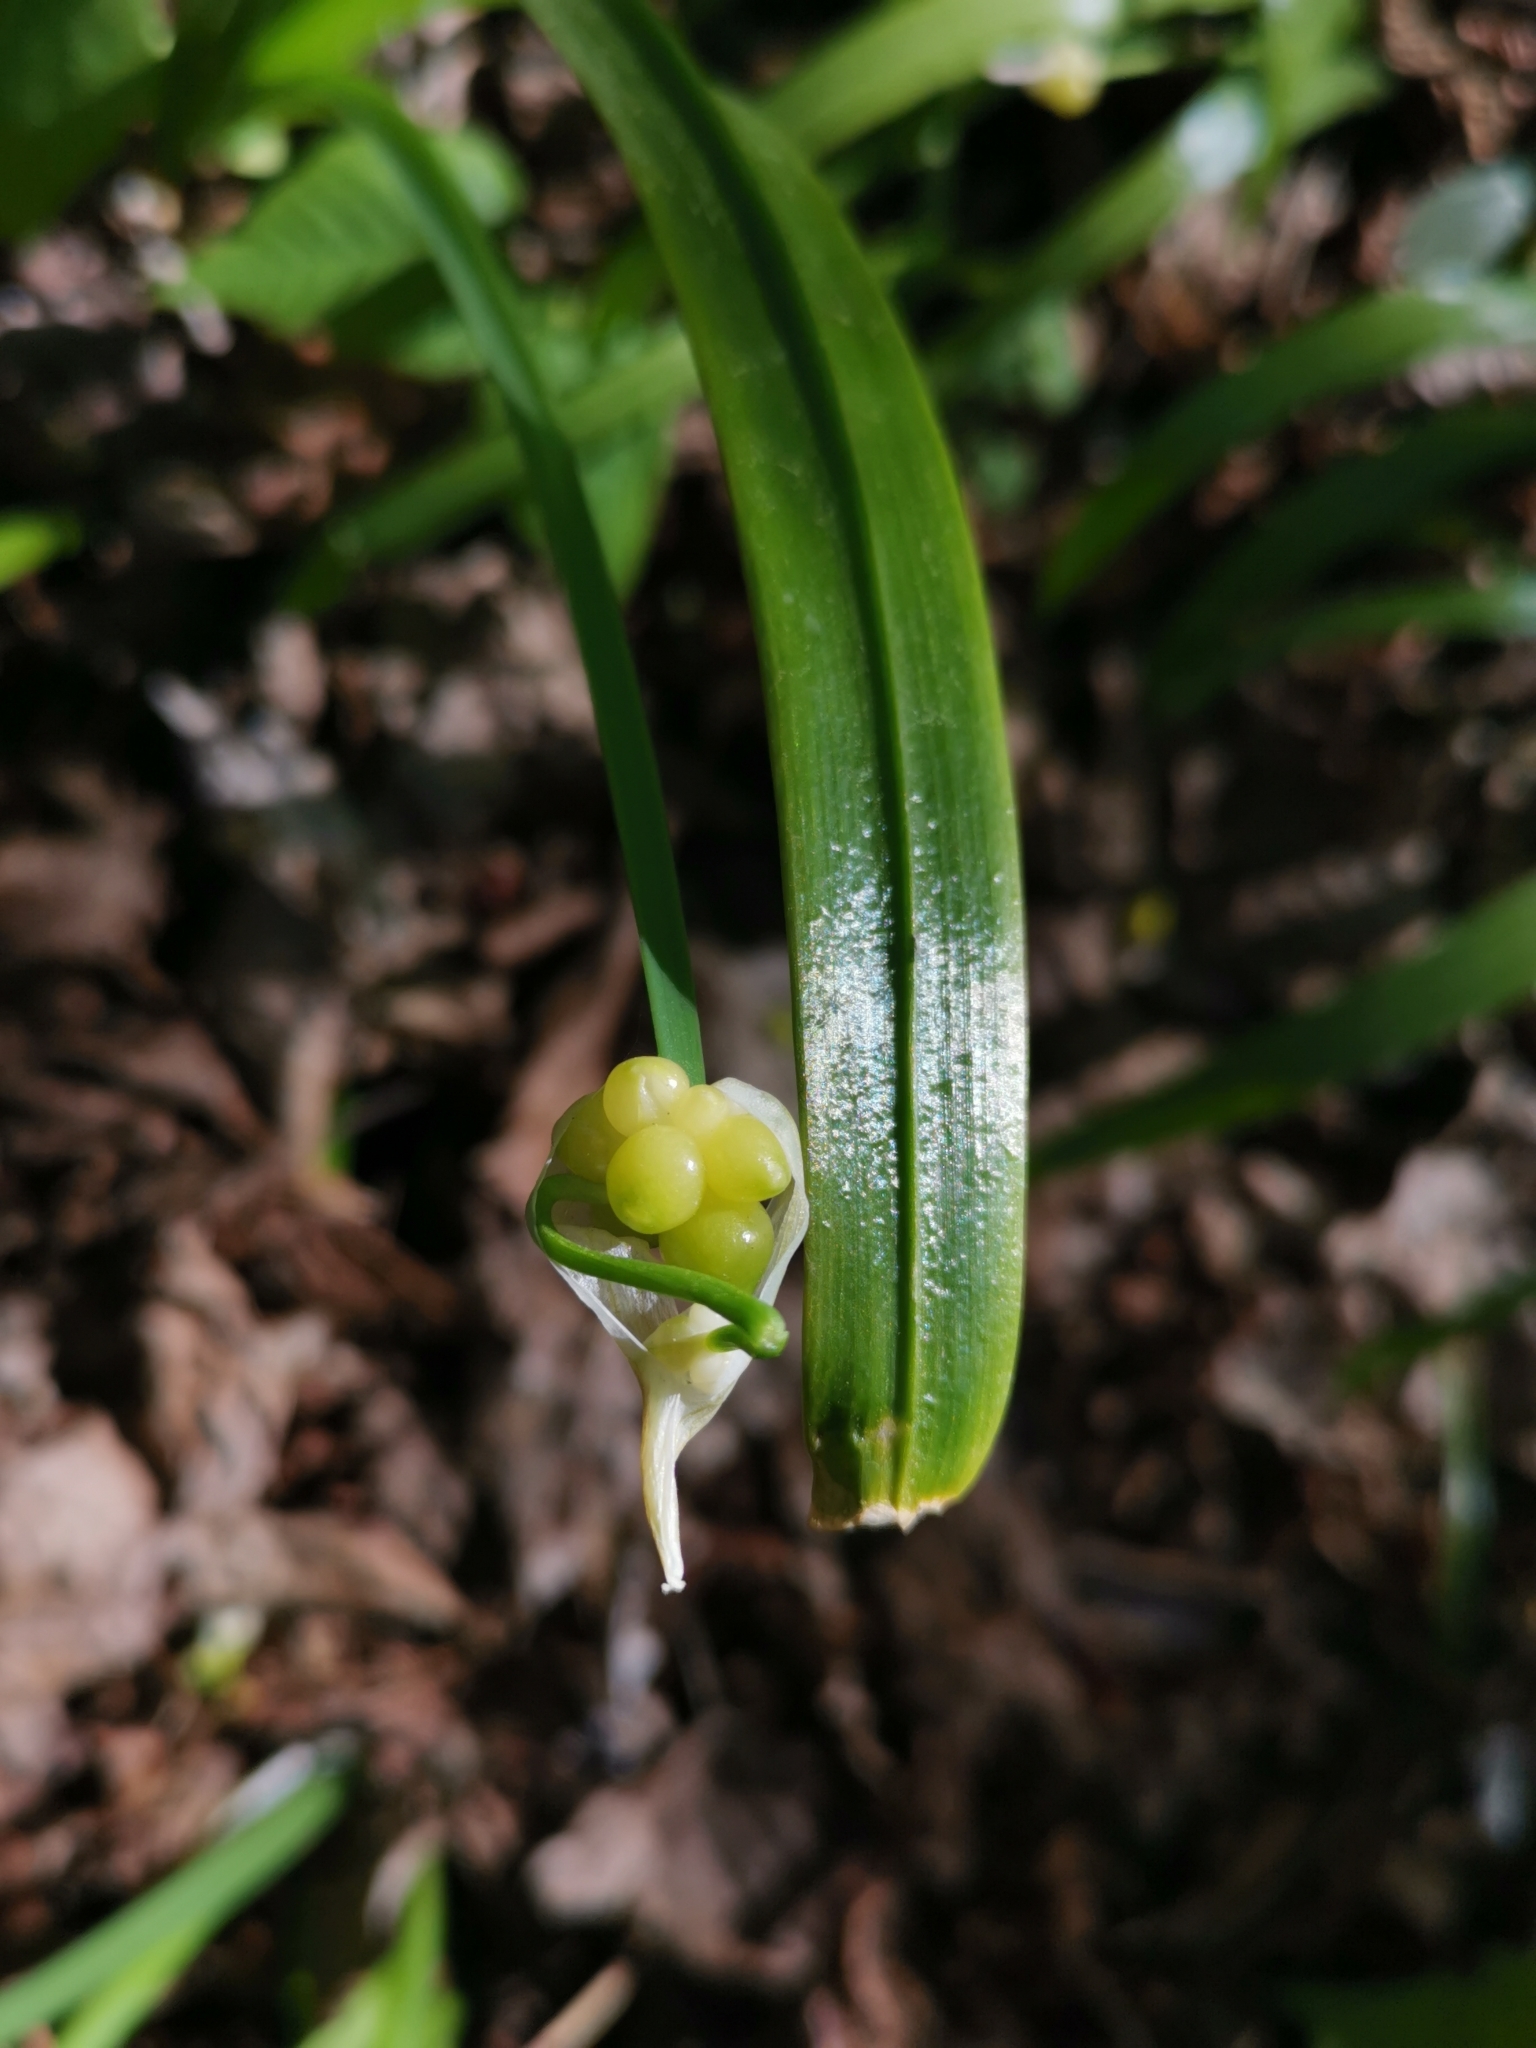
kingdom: Plantae
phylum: Tracheophyta
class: Liliopsida
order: Asparagales
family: Amaryllidaceae
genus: Allium
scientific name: Allium paradoxum
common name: Few-flowered garlic
